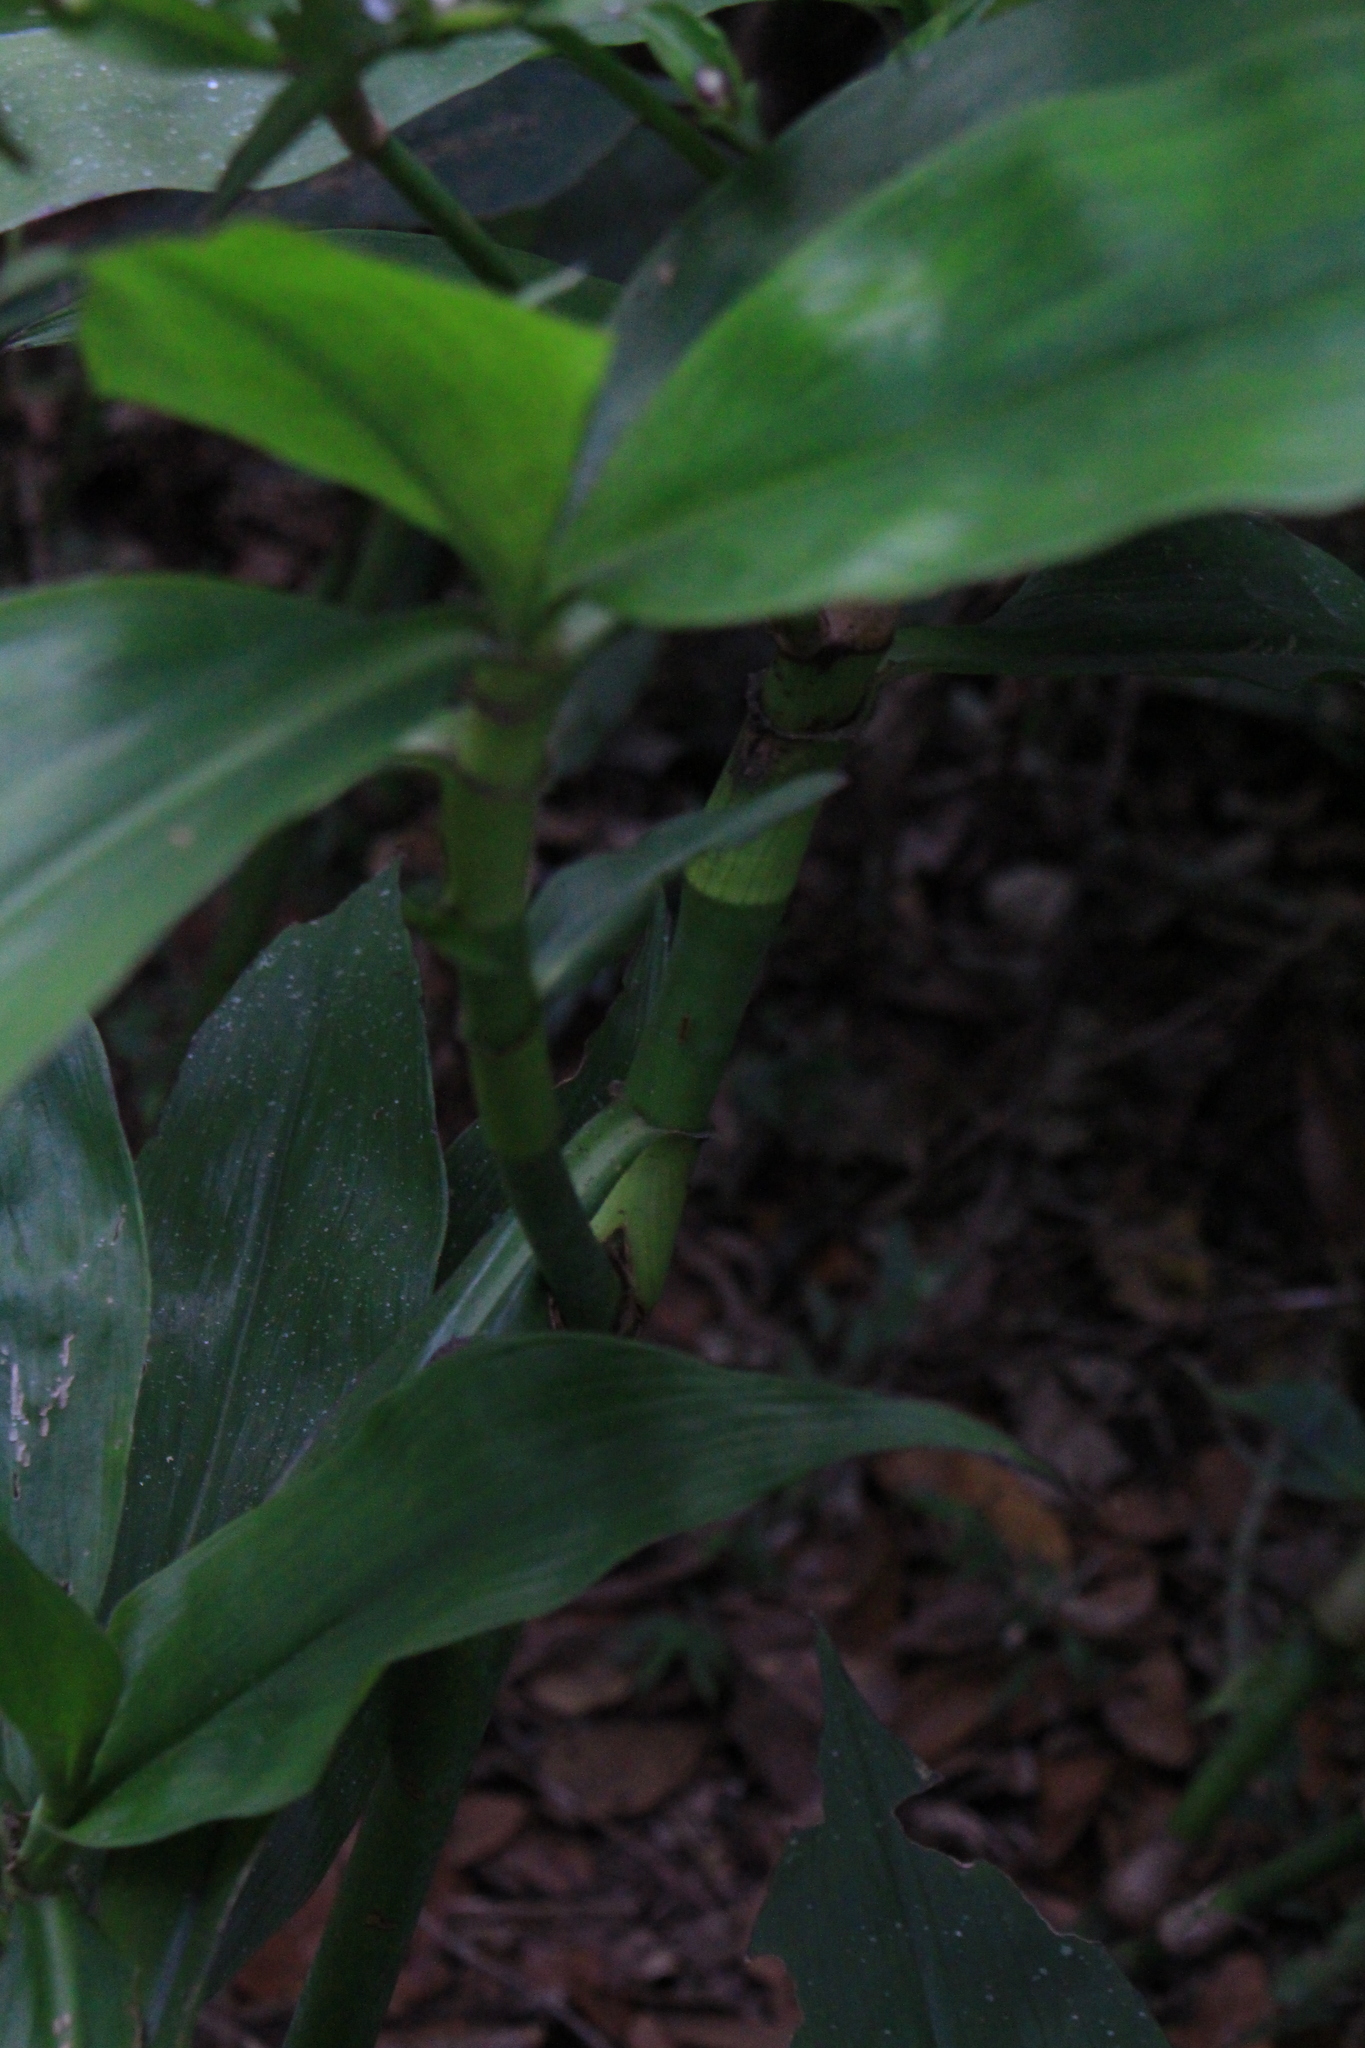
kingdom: Plantae
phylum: Tracheophyta
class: Liliopsida
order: Commelinales
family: Commelinaceae
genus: Tradescantia
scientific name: Tradescantia zanonia
